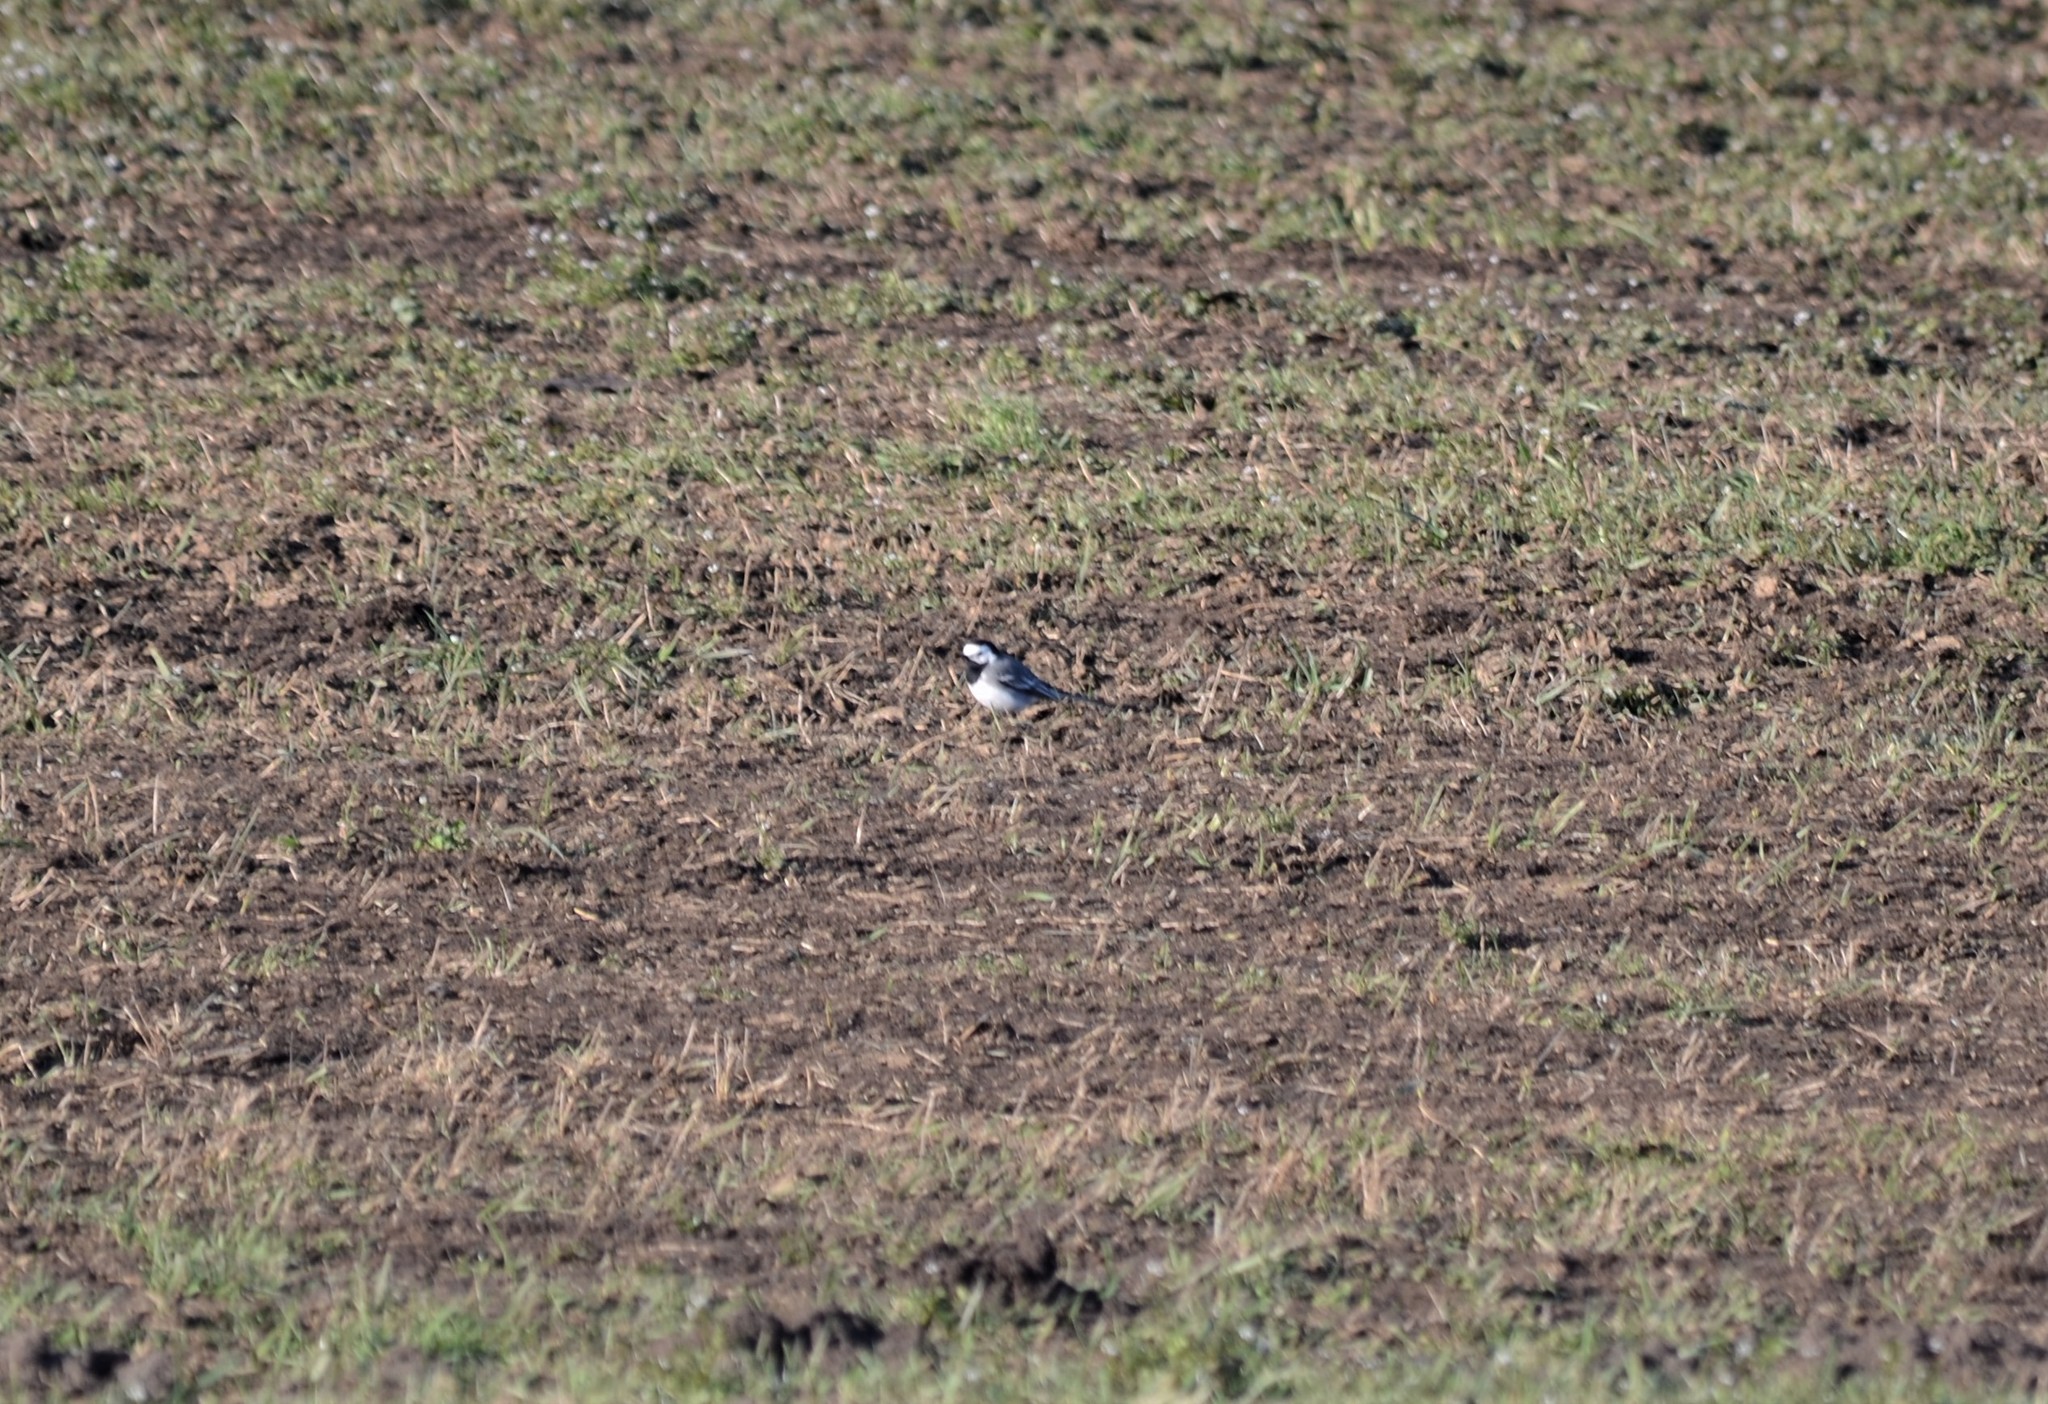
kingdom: Animalia
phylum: Chordata
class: Aves
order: Passeriformes
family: Motacillidae
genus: Motacilla
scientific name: Motacilla alba
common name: White wagtail
